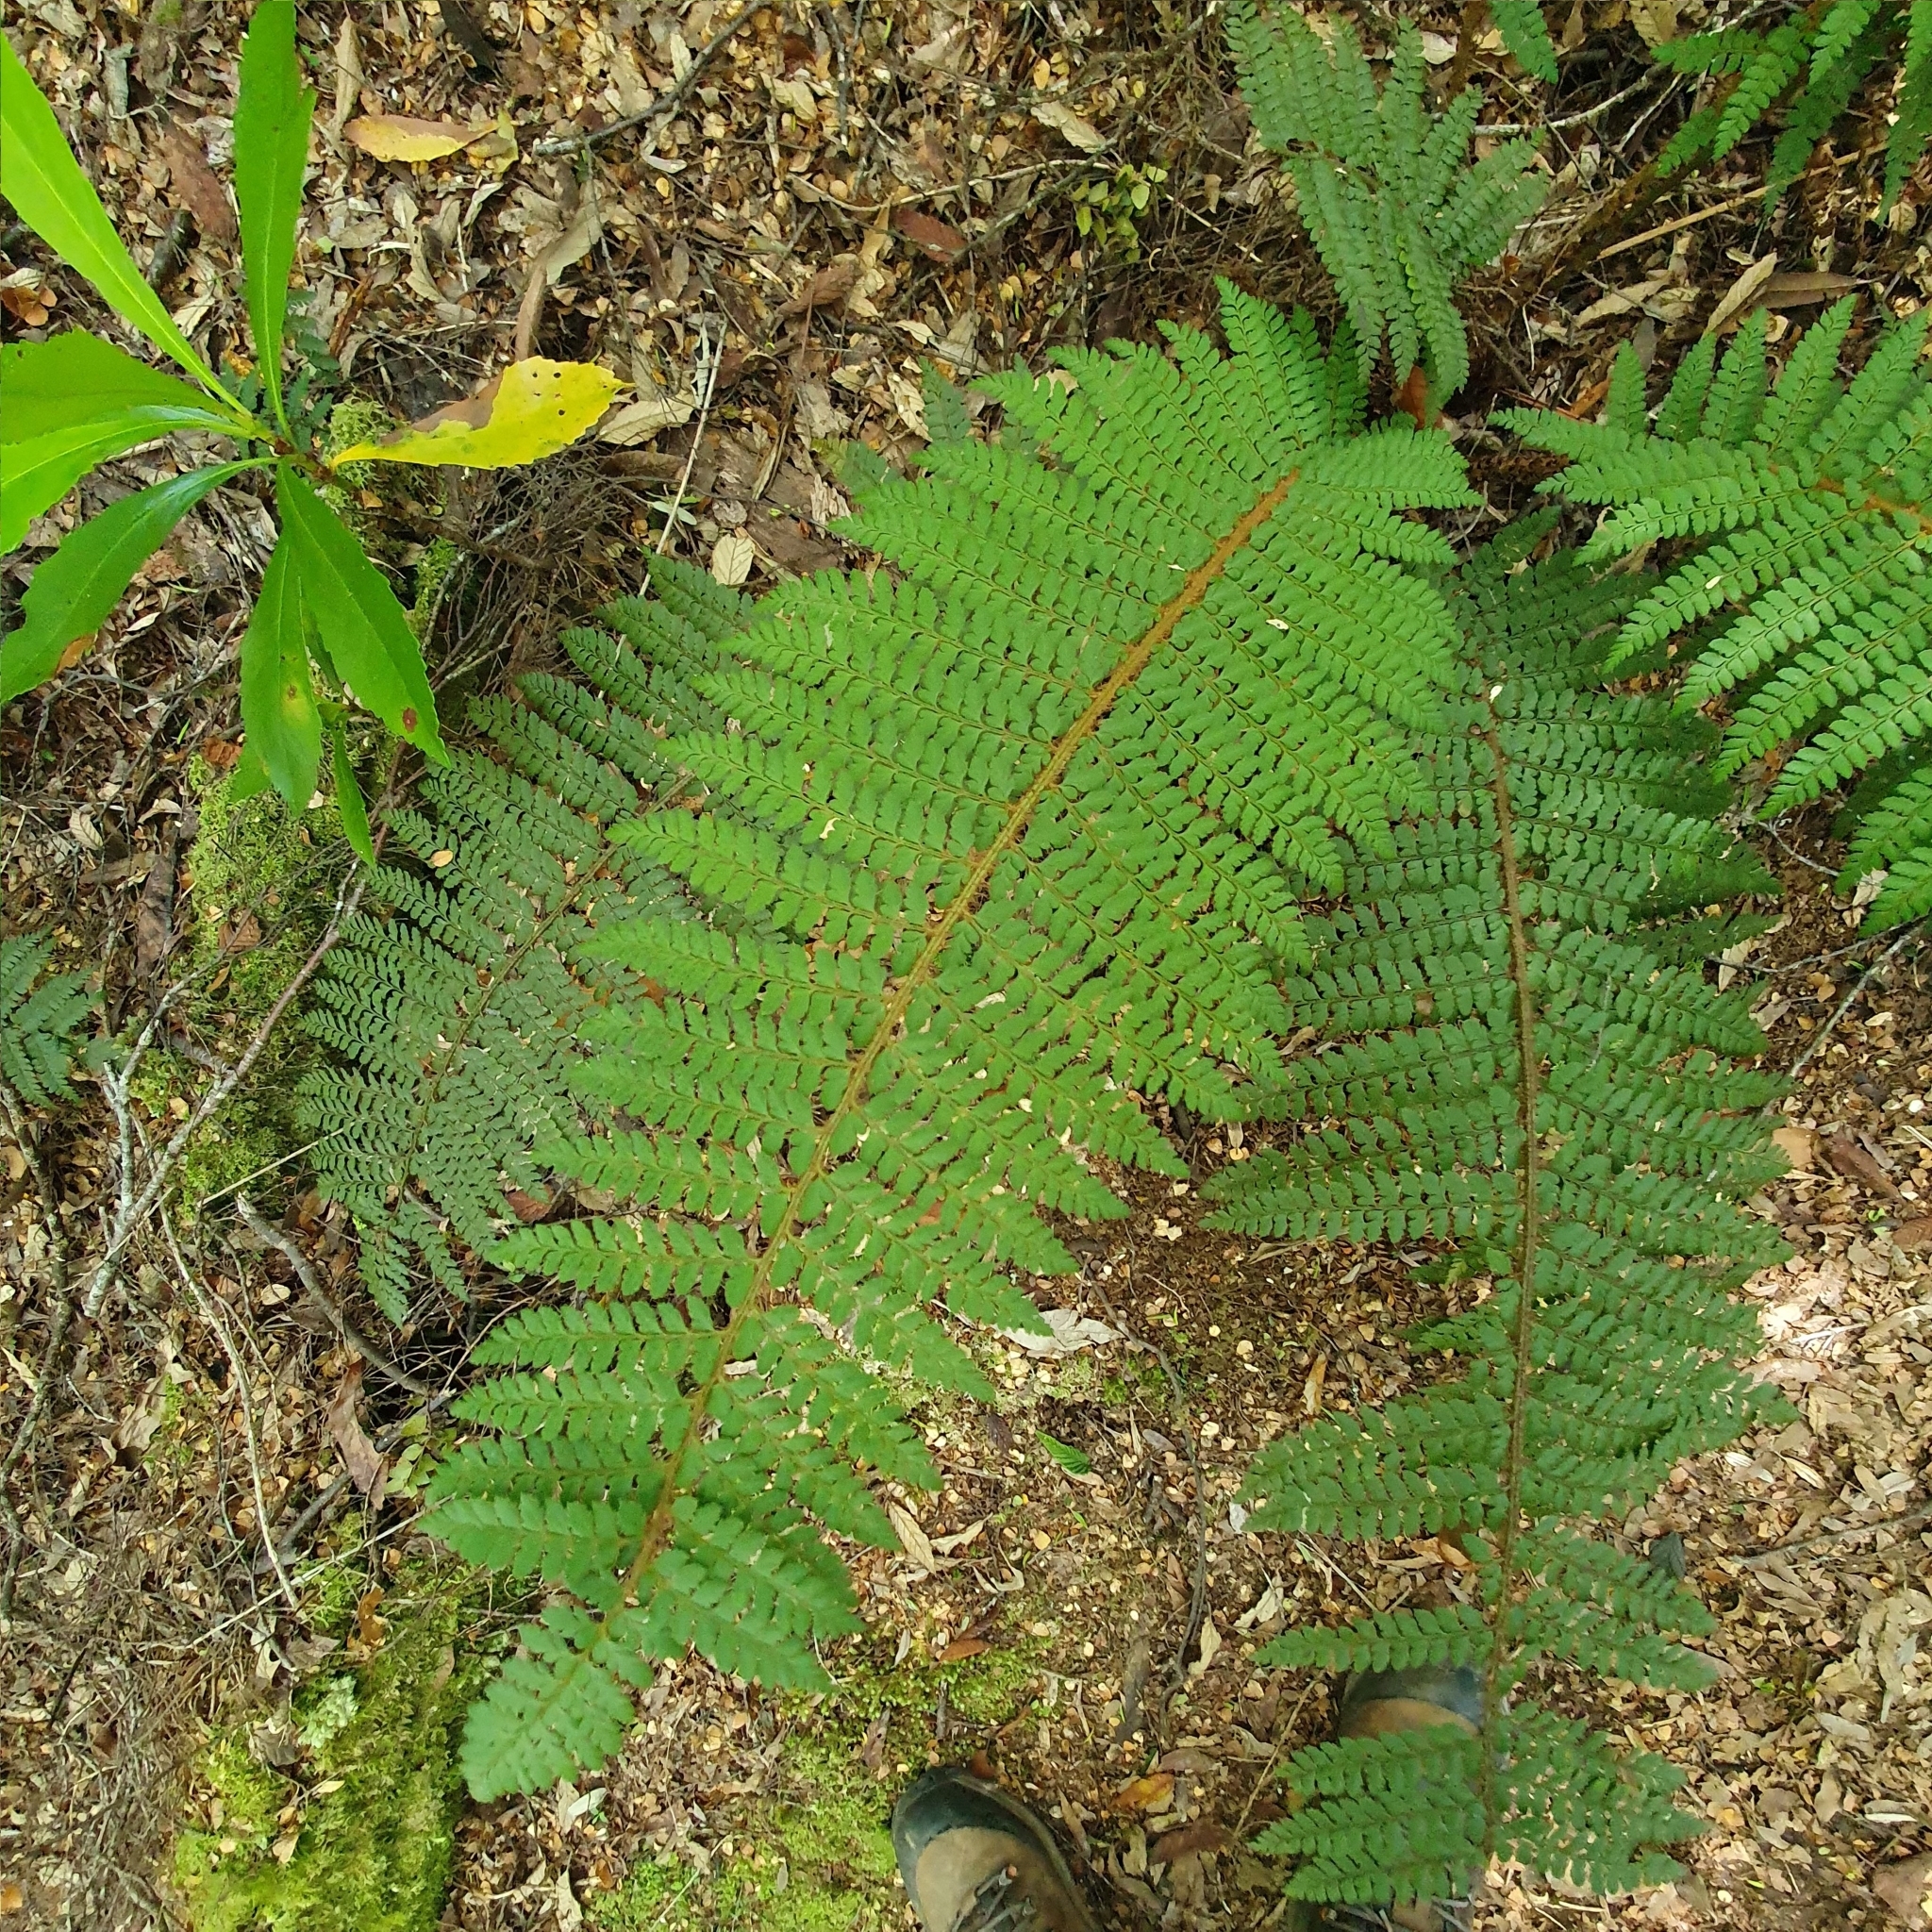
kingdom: Plantae
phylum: Tracheophyta
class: Polypodiopsida
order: Polypodiales
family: Dryopteridaceae
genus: Polystichum
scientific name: Polystichum proliferum
